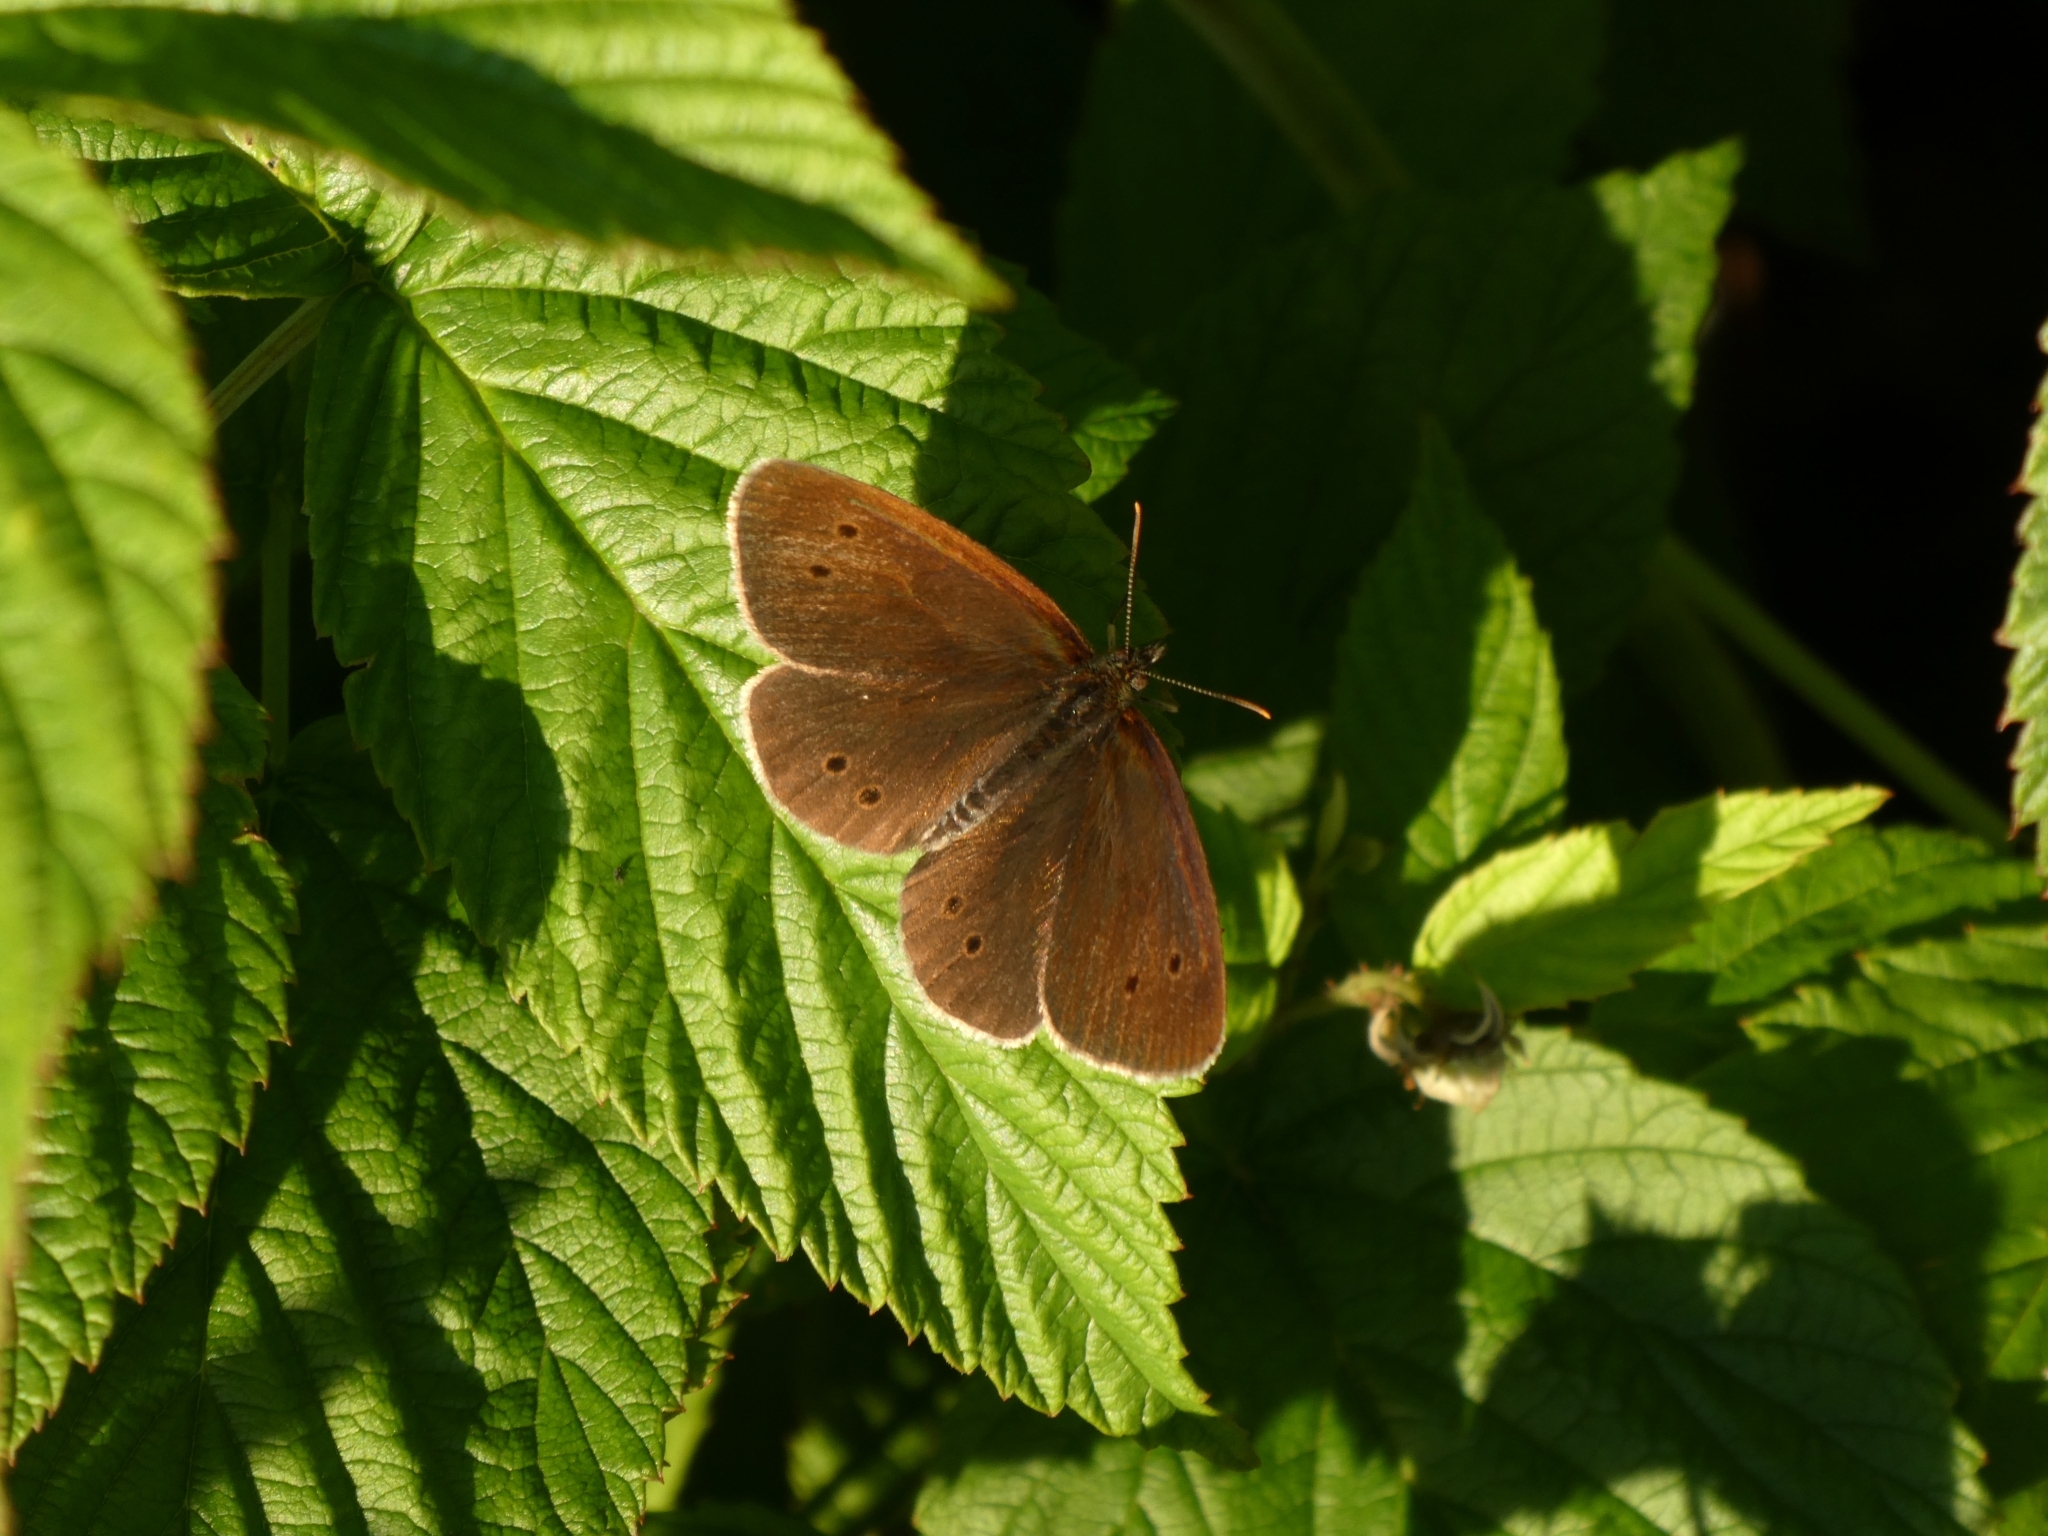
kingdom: Animalia
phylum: Arthropoda
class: Insecta
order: Lepidoptera
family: Nymphalidae
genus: Aphantopus
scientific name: Aphantopus hyperantus
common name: Ringlet
